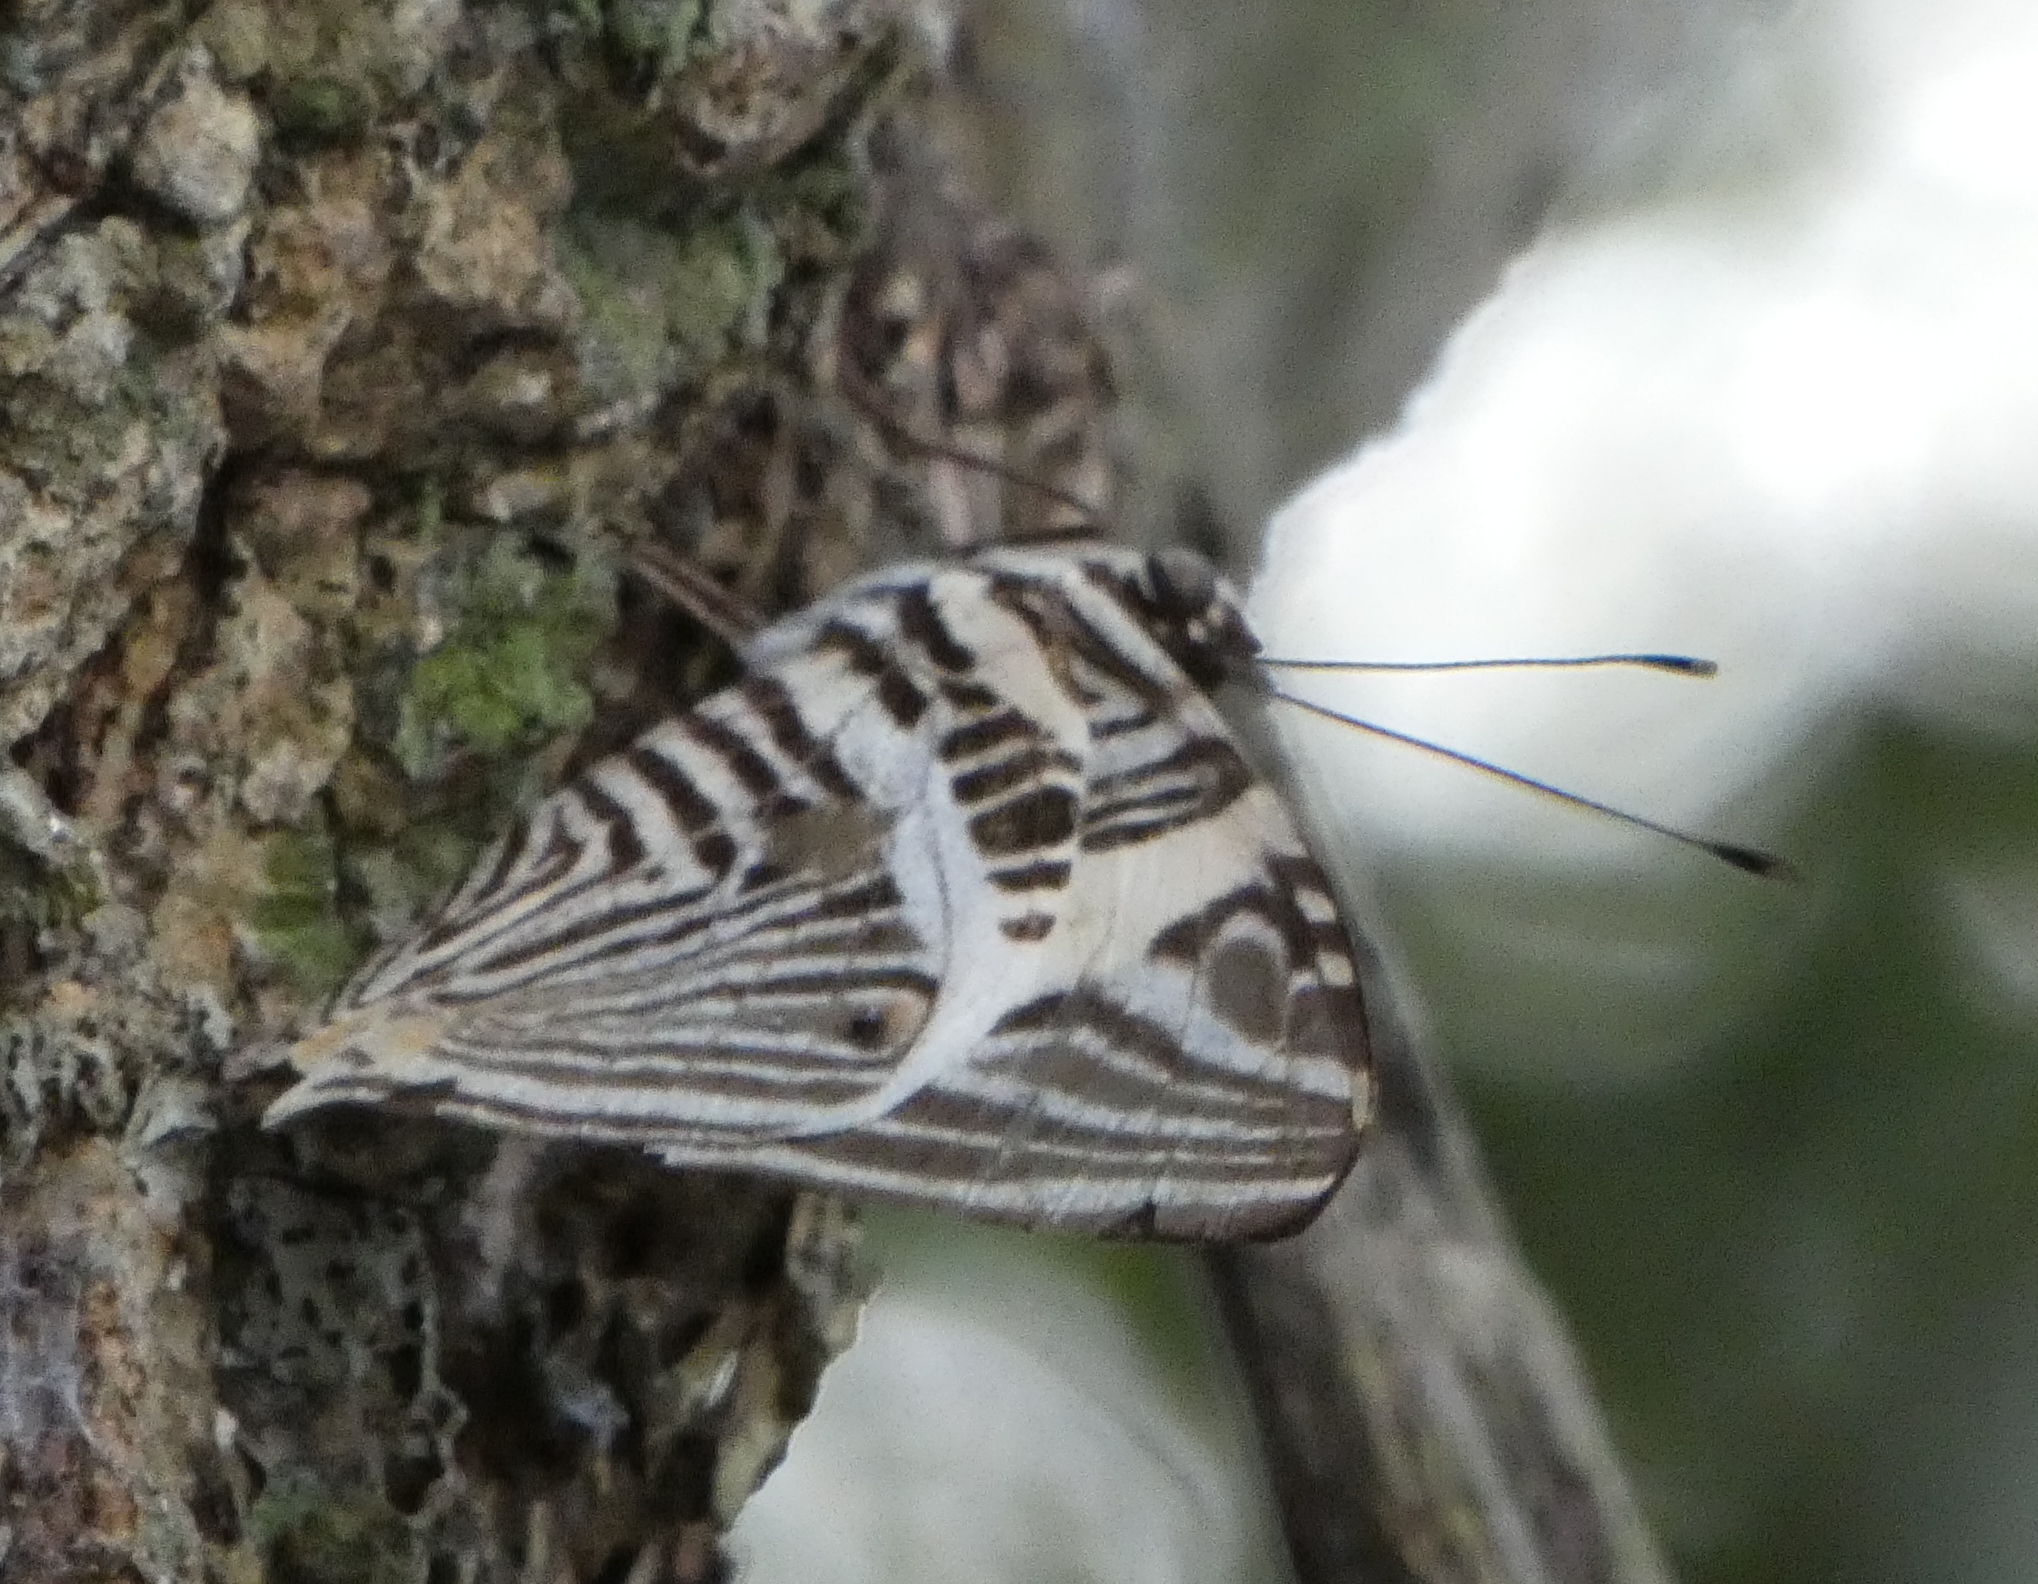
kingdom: Animalia
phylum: Arthropoda
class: Insecta
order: Lepidoptera
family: Nymphalidae
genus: Colobura
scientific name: Colobura dirce
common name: Dirce beauty
